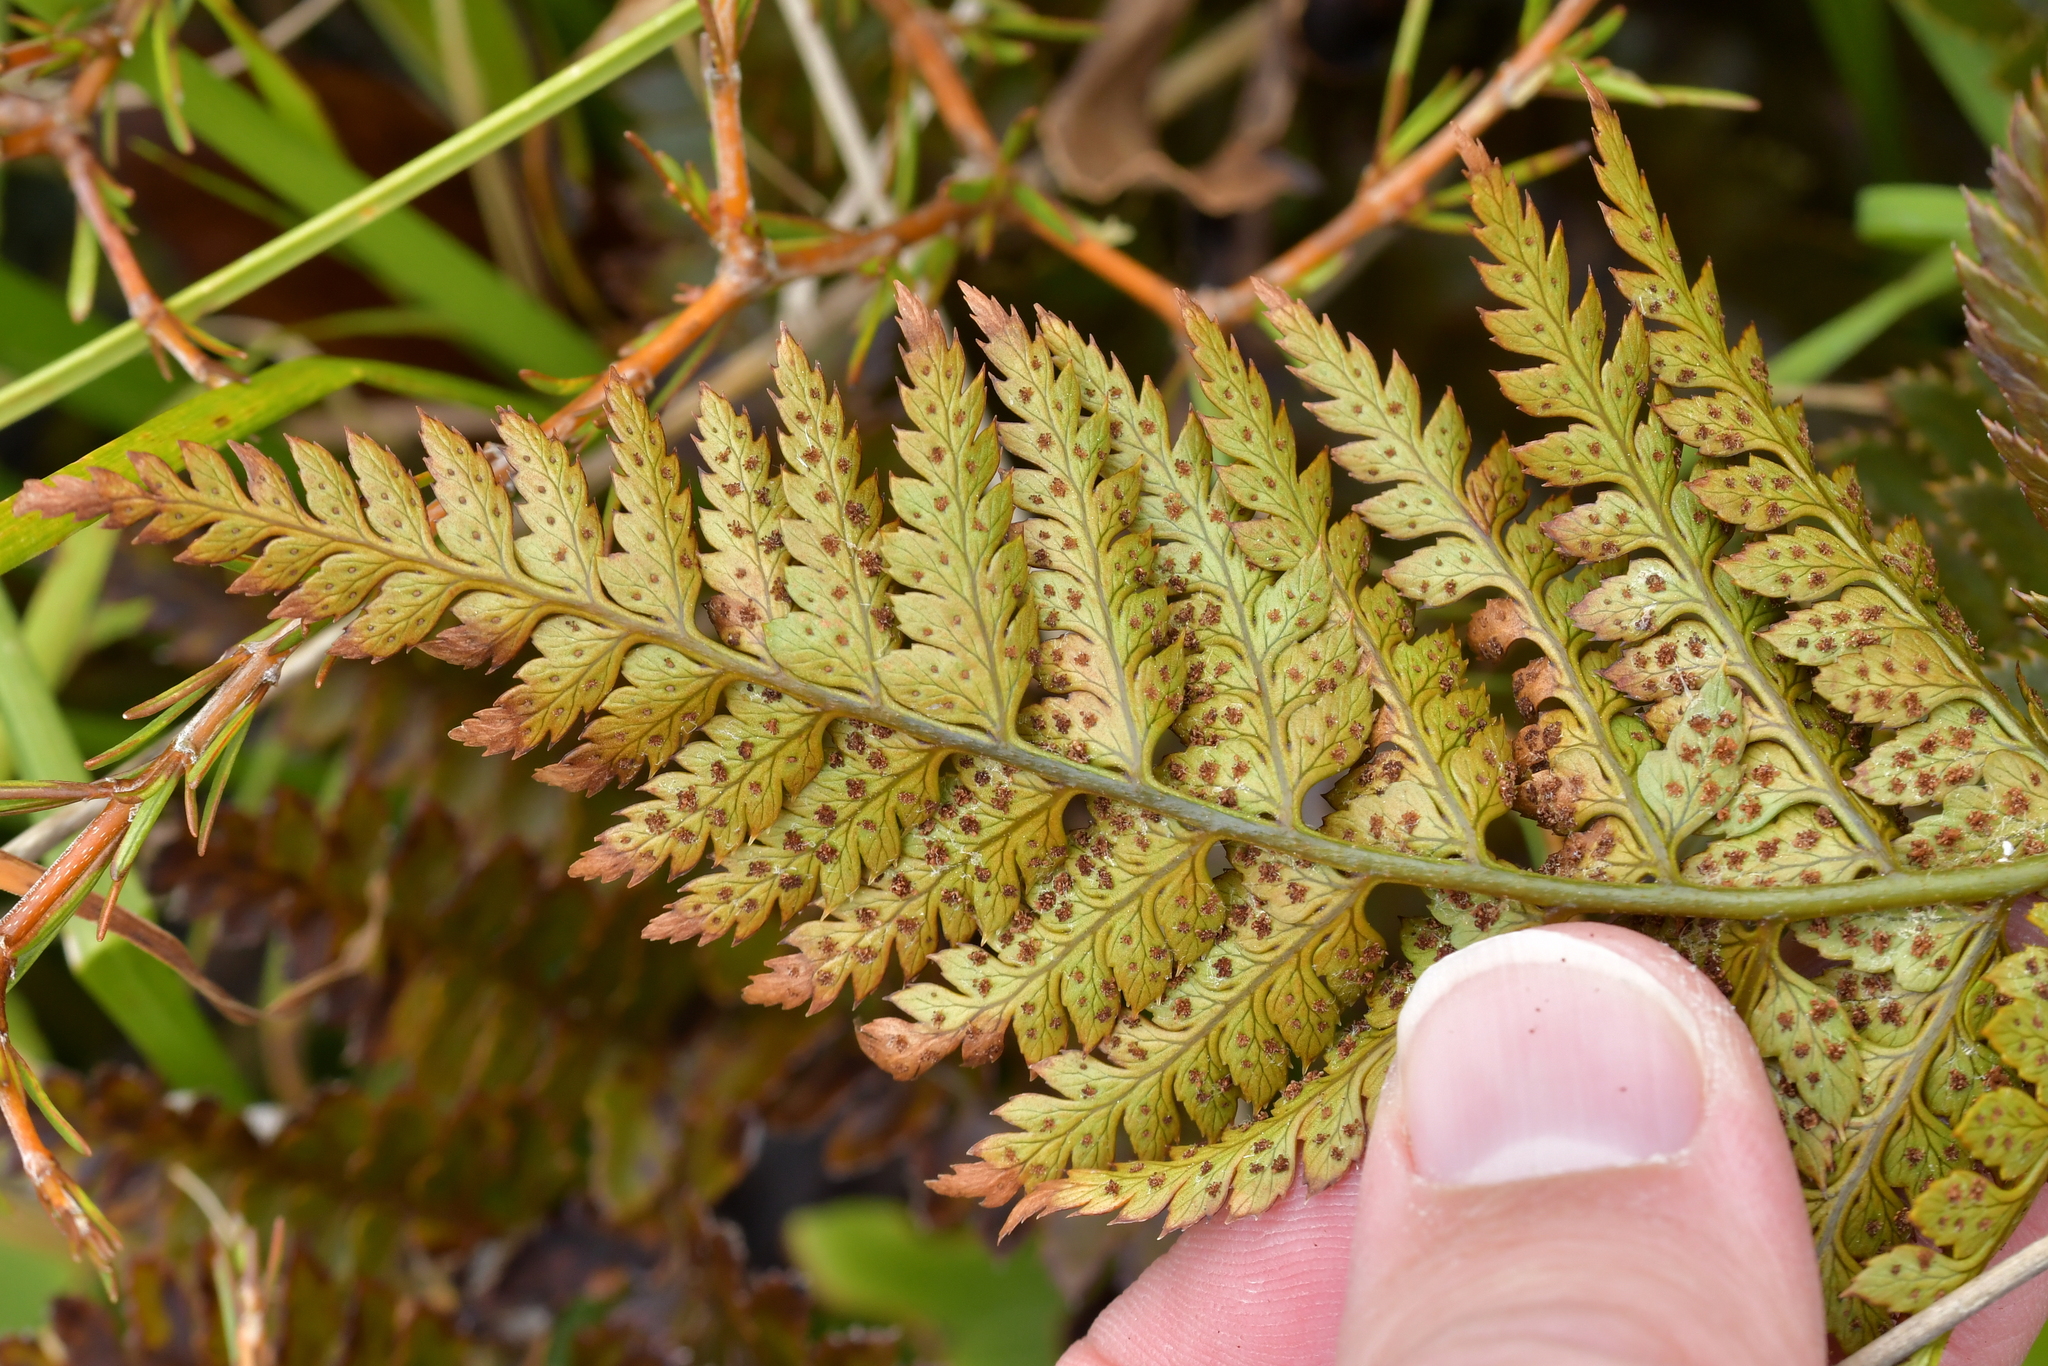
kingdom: Plantae
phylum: Tracheophyta
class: Polypodiopsida
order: Polypodiales
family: Dryopteridaceae
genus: Polystichum
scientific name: Polystichum oculatum
